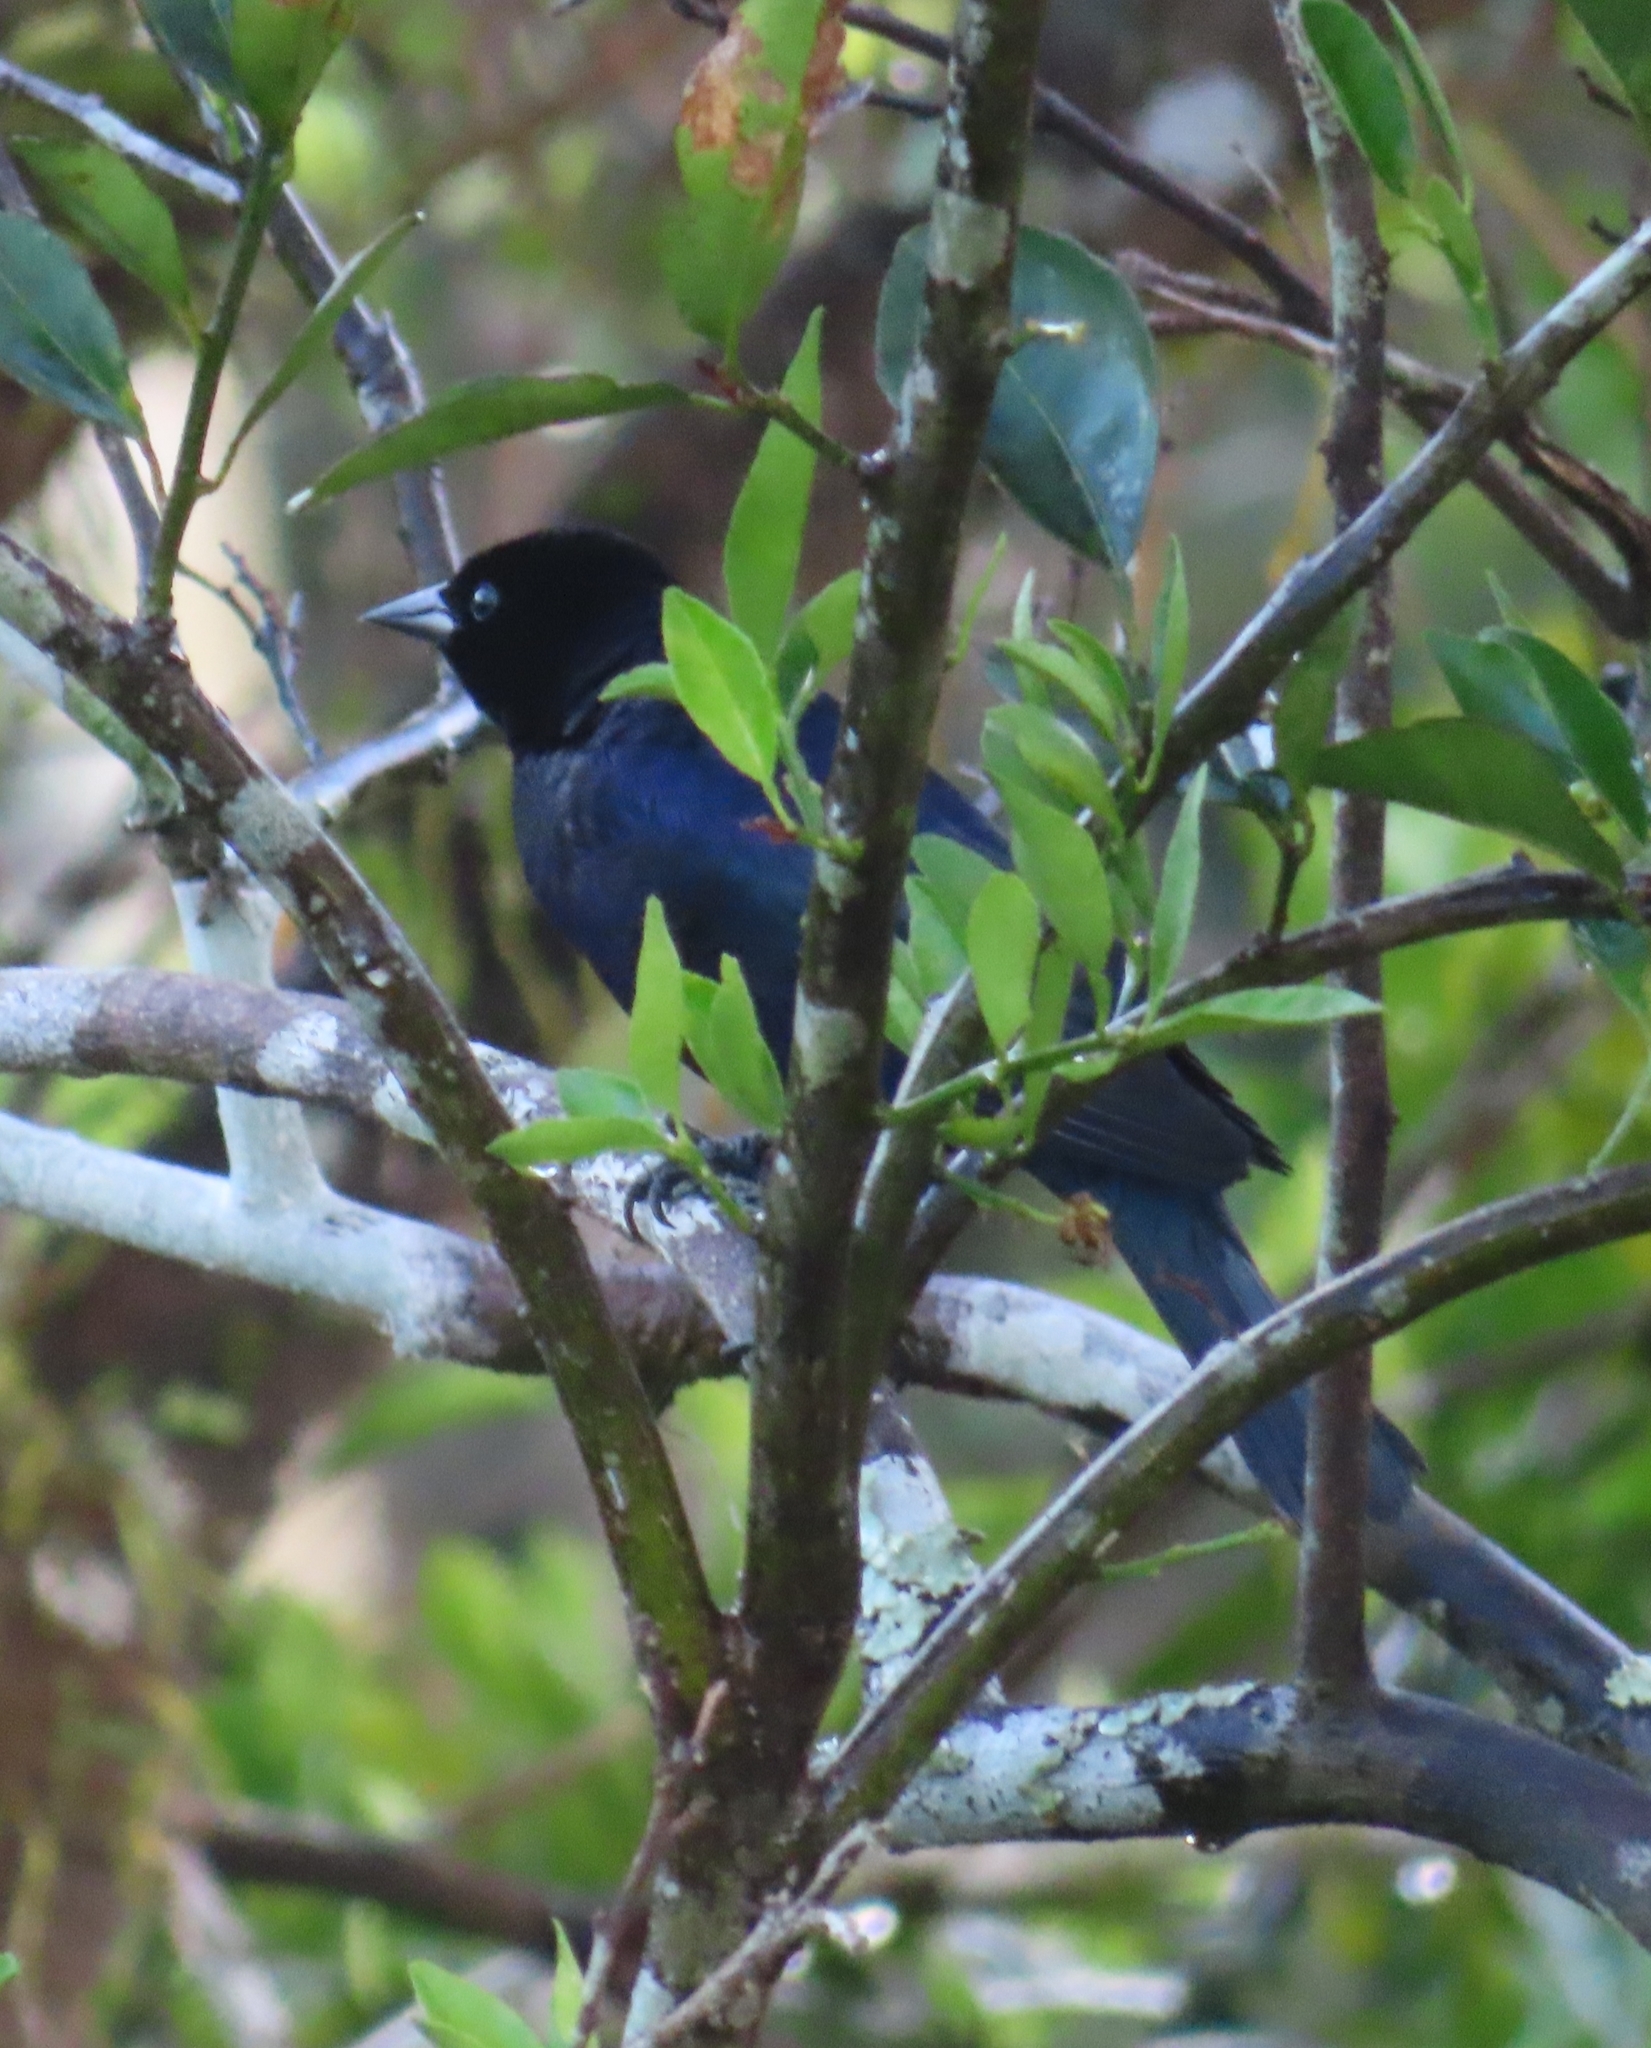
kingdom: Animalia
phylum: Chordata
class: Aves
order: Passeriformes
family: Icteridae
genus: Molothrus
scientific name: Molothrus bonariensis
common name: Shiny cowbird
